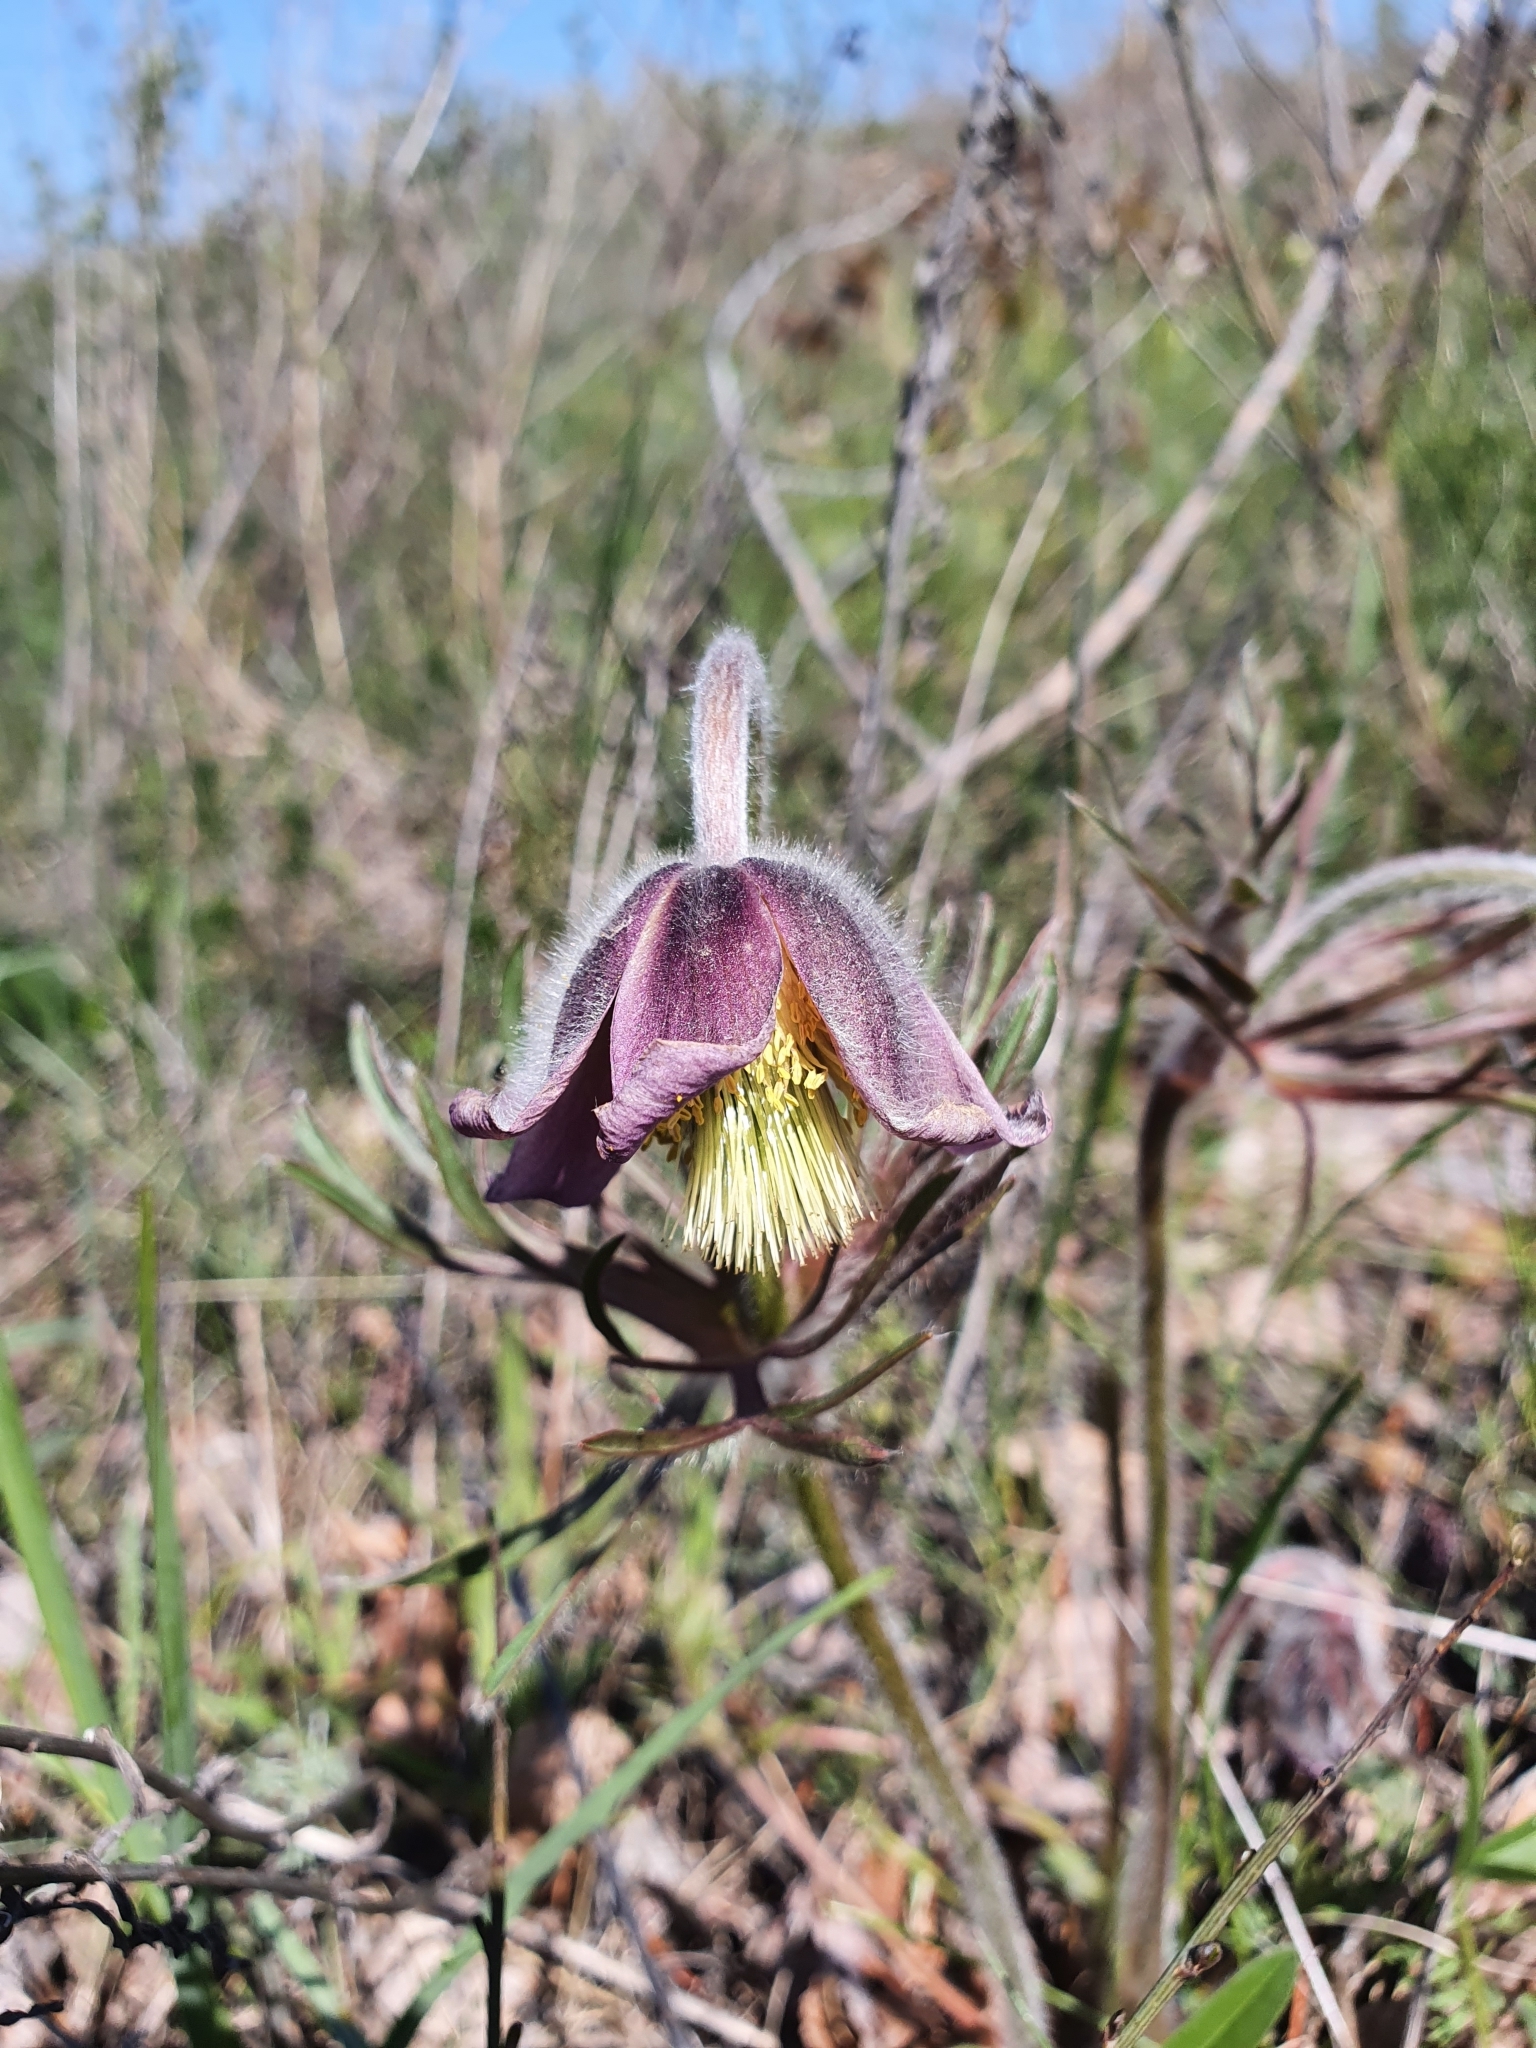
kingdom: Plantae
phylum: Tracheophyta
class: Magnoliopsida
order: Ranunculales
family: Ranunculaceae
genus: Pulsatilla
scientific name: Pulsatilla pratensis
